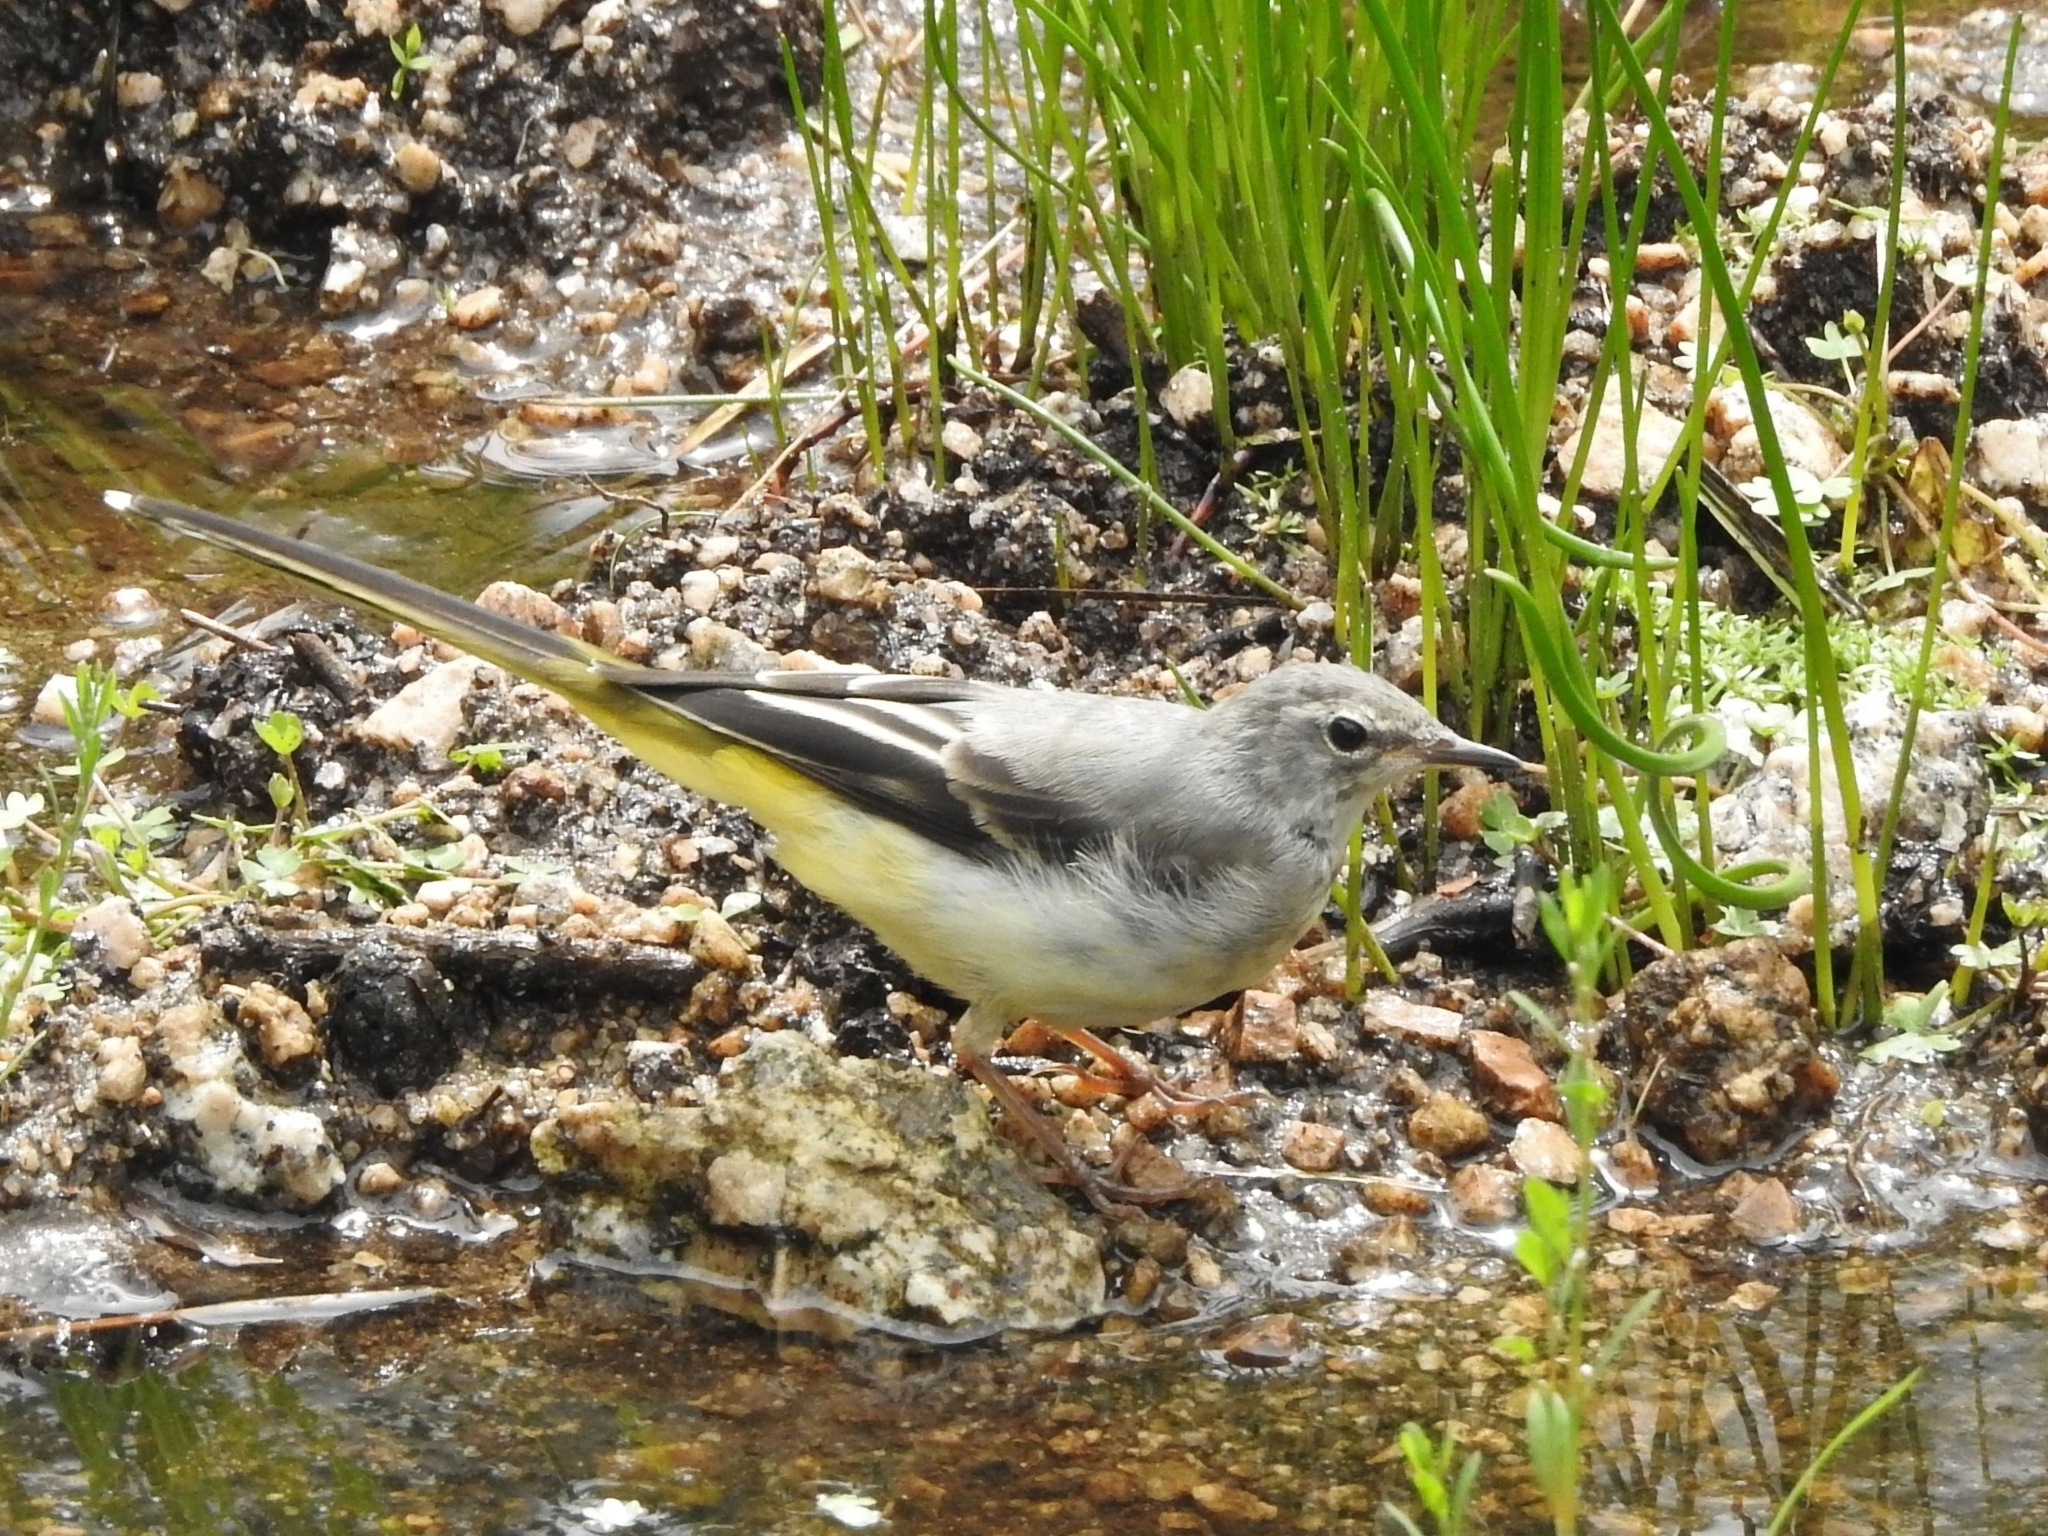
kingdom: Animalia
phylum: Chordata
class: Aves
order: Passeriformes
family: Motacillidae
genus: Motacilla
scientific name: Motacilla cinerea
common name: Grey wagtail
